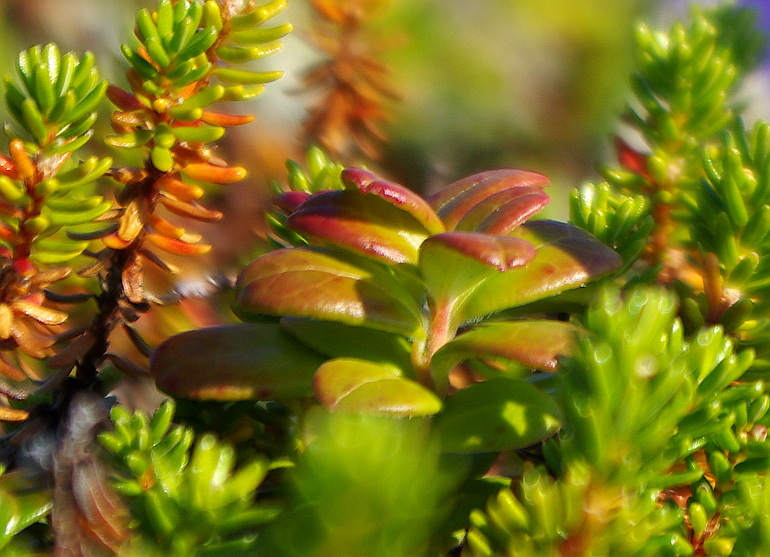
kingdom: Plantae
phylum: Tracheophyta
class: Magnoliopsida
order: Ericales
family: Ericaceae
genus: Vaccinium
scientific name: Vaccinium vitis-idaea
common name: Cowberry
